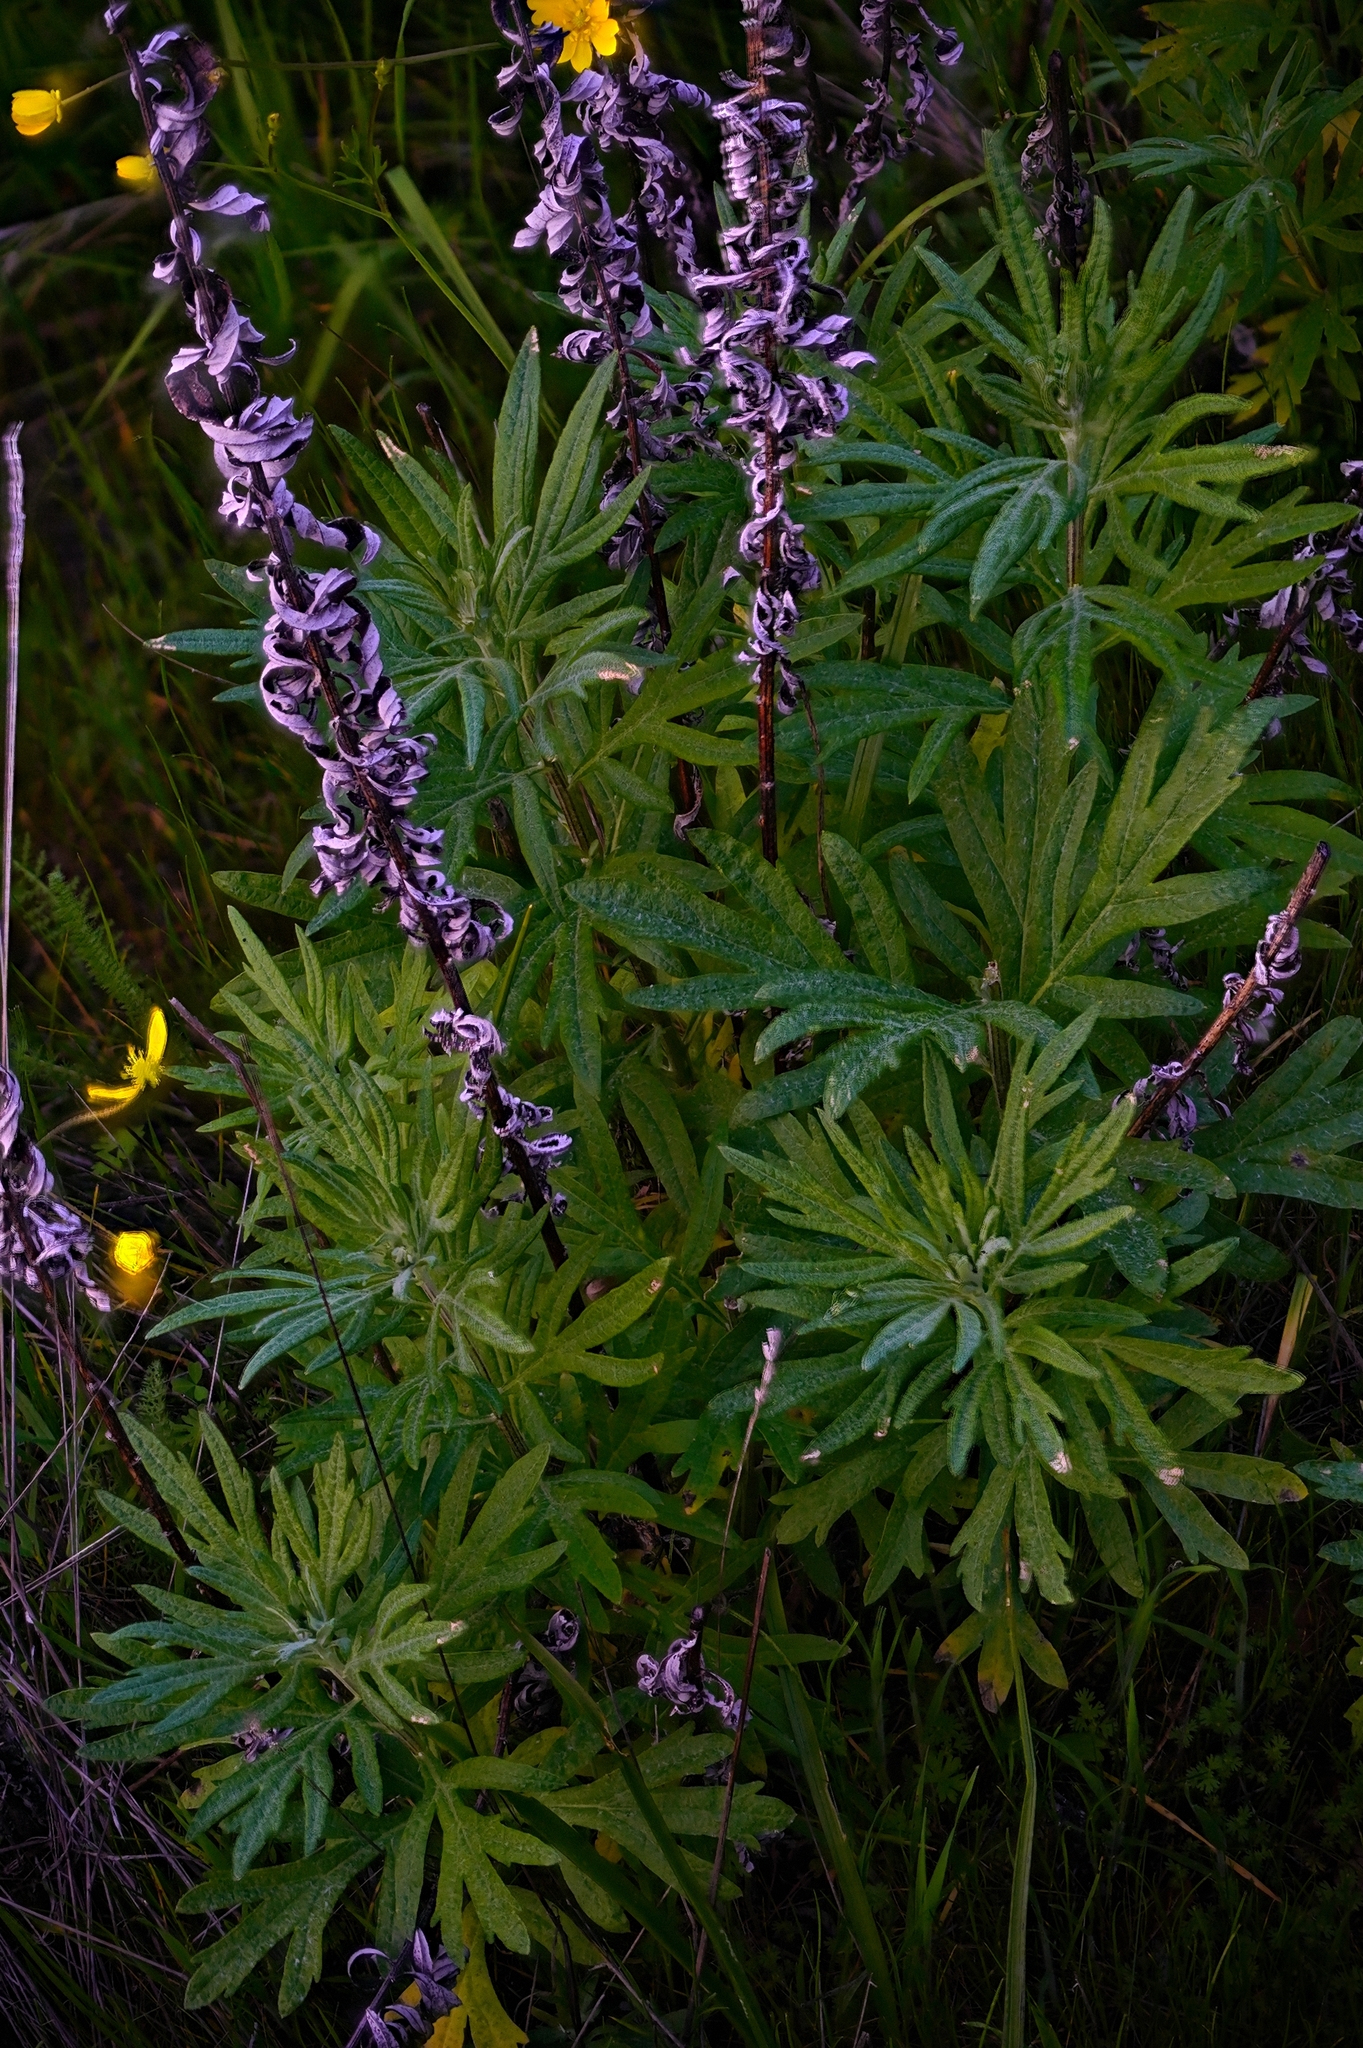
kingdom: Plantae
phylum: Tracheophyta
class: Magnoliopsida
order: Asterales
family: Asteraceae
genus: Artemisia
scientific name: Artemisia douglasiana
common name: Northwest mugwort
